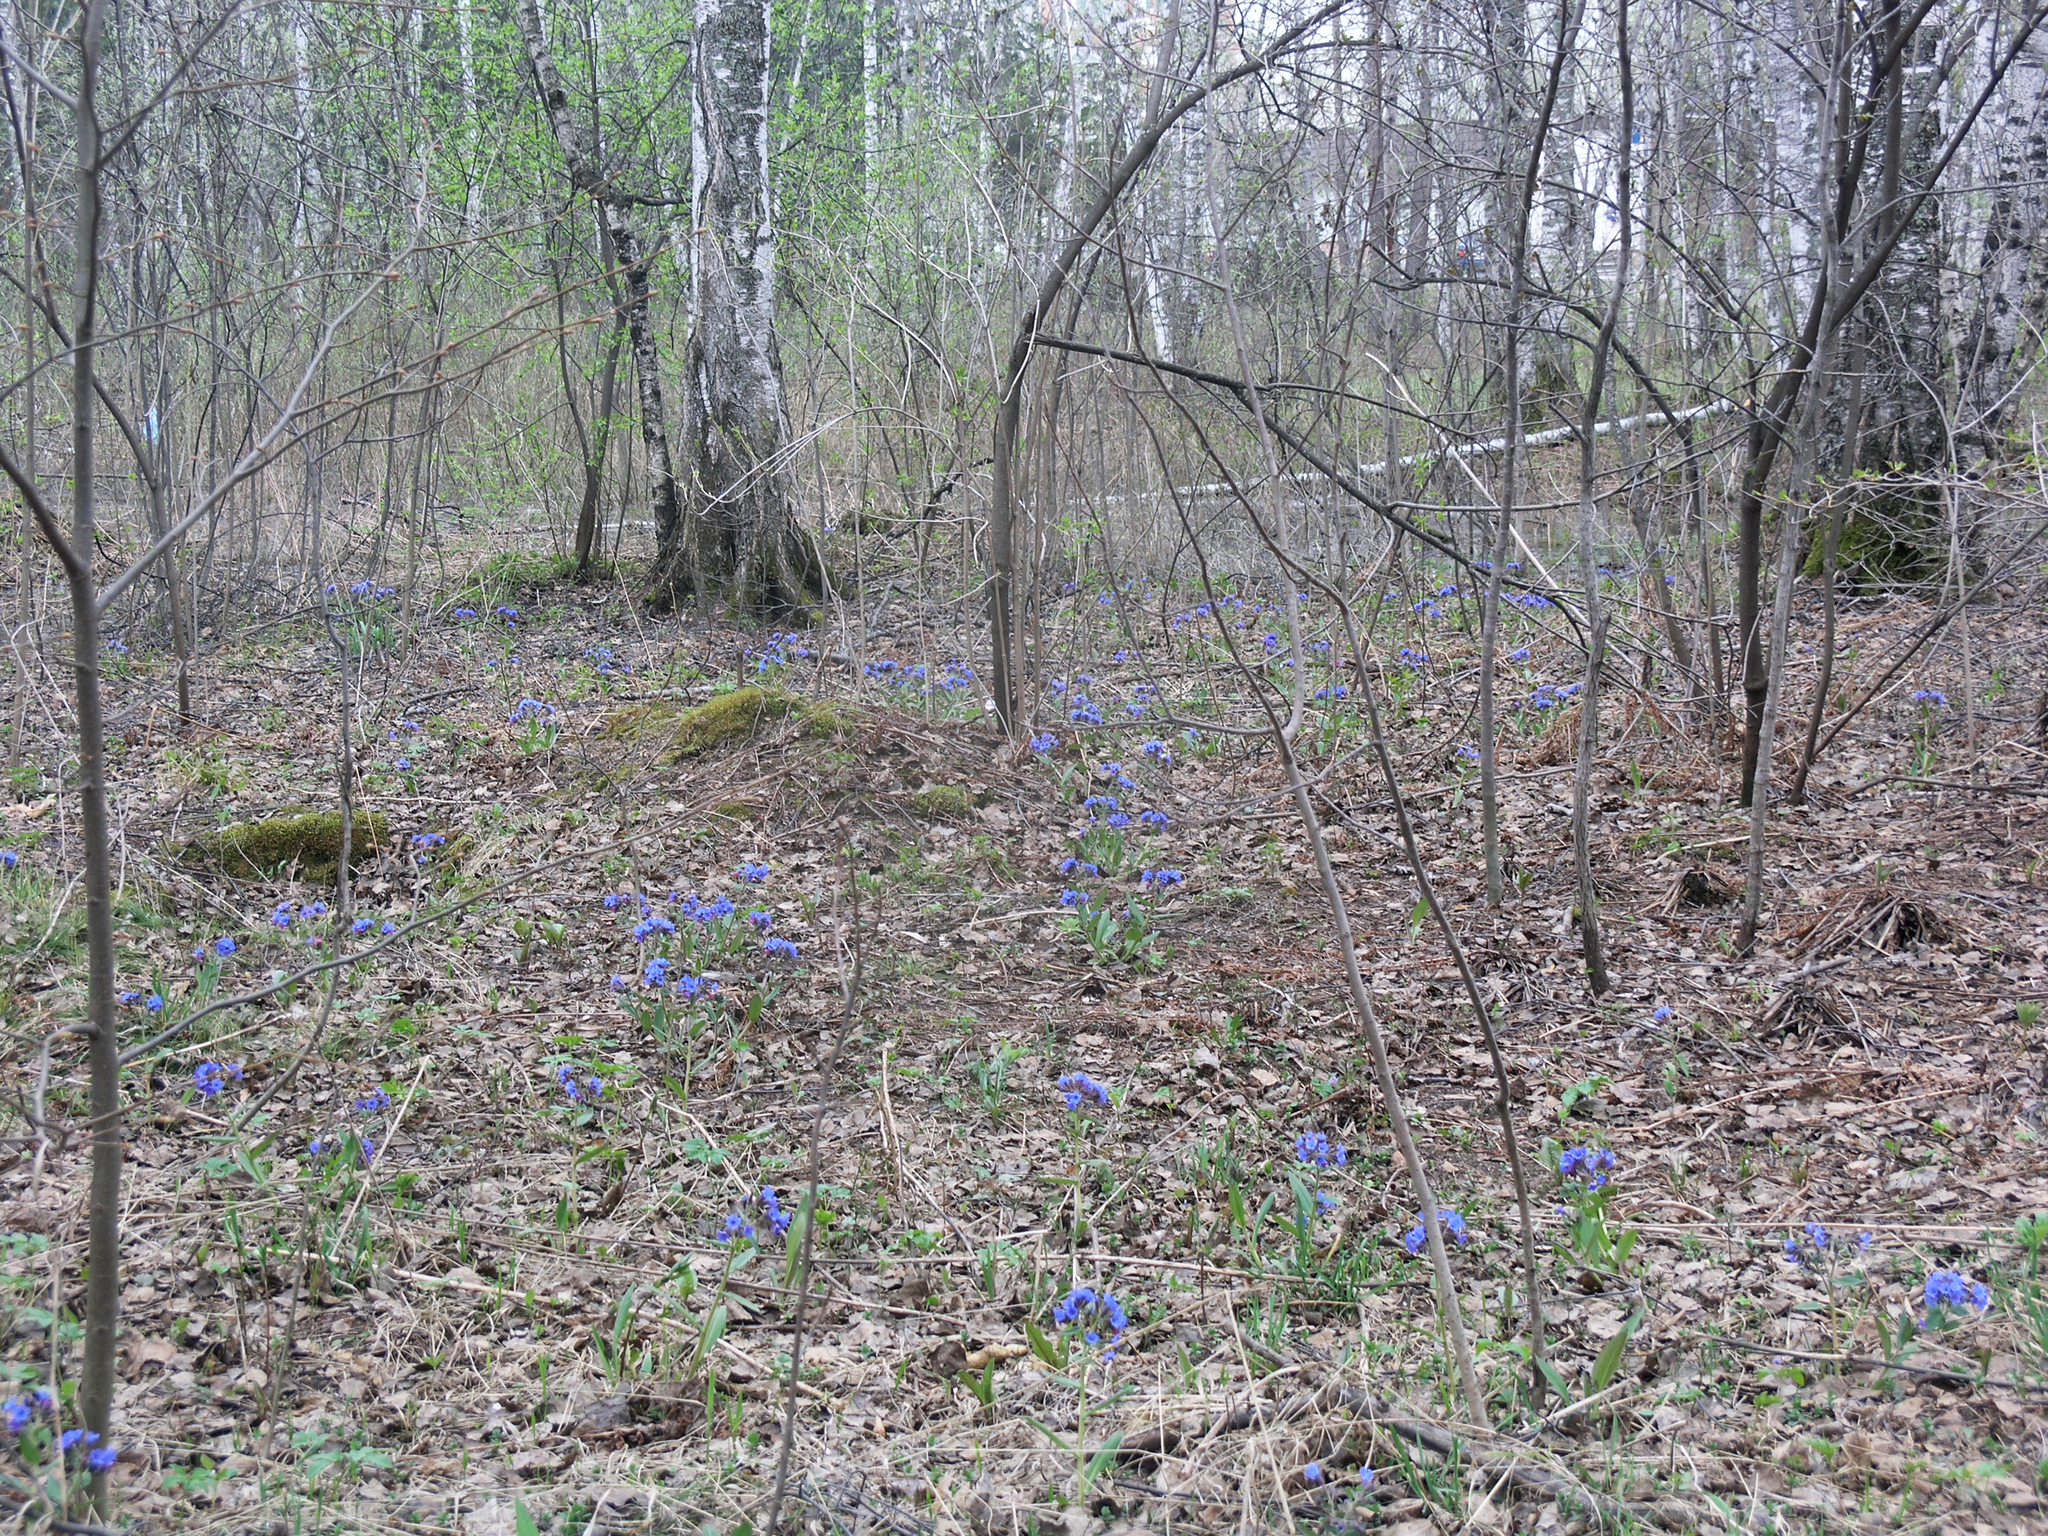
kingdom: Plantae
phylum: Tracheophyta
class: Magnoliopsida
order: Boraginales
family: Boraginaceae
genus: Pulmonaria
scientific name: Pulmonaria mollis
